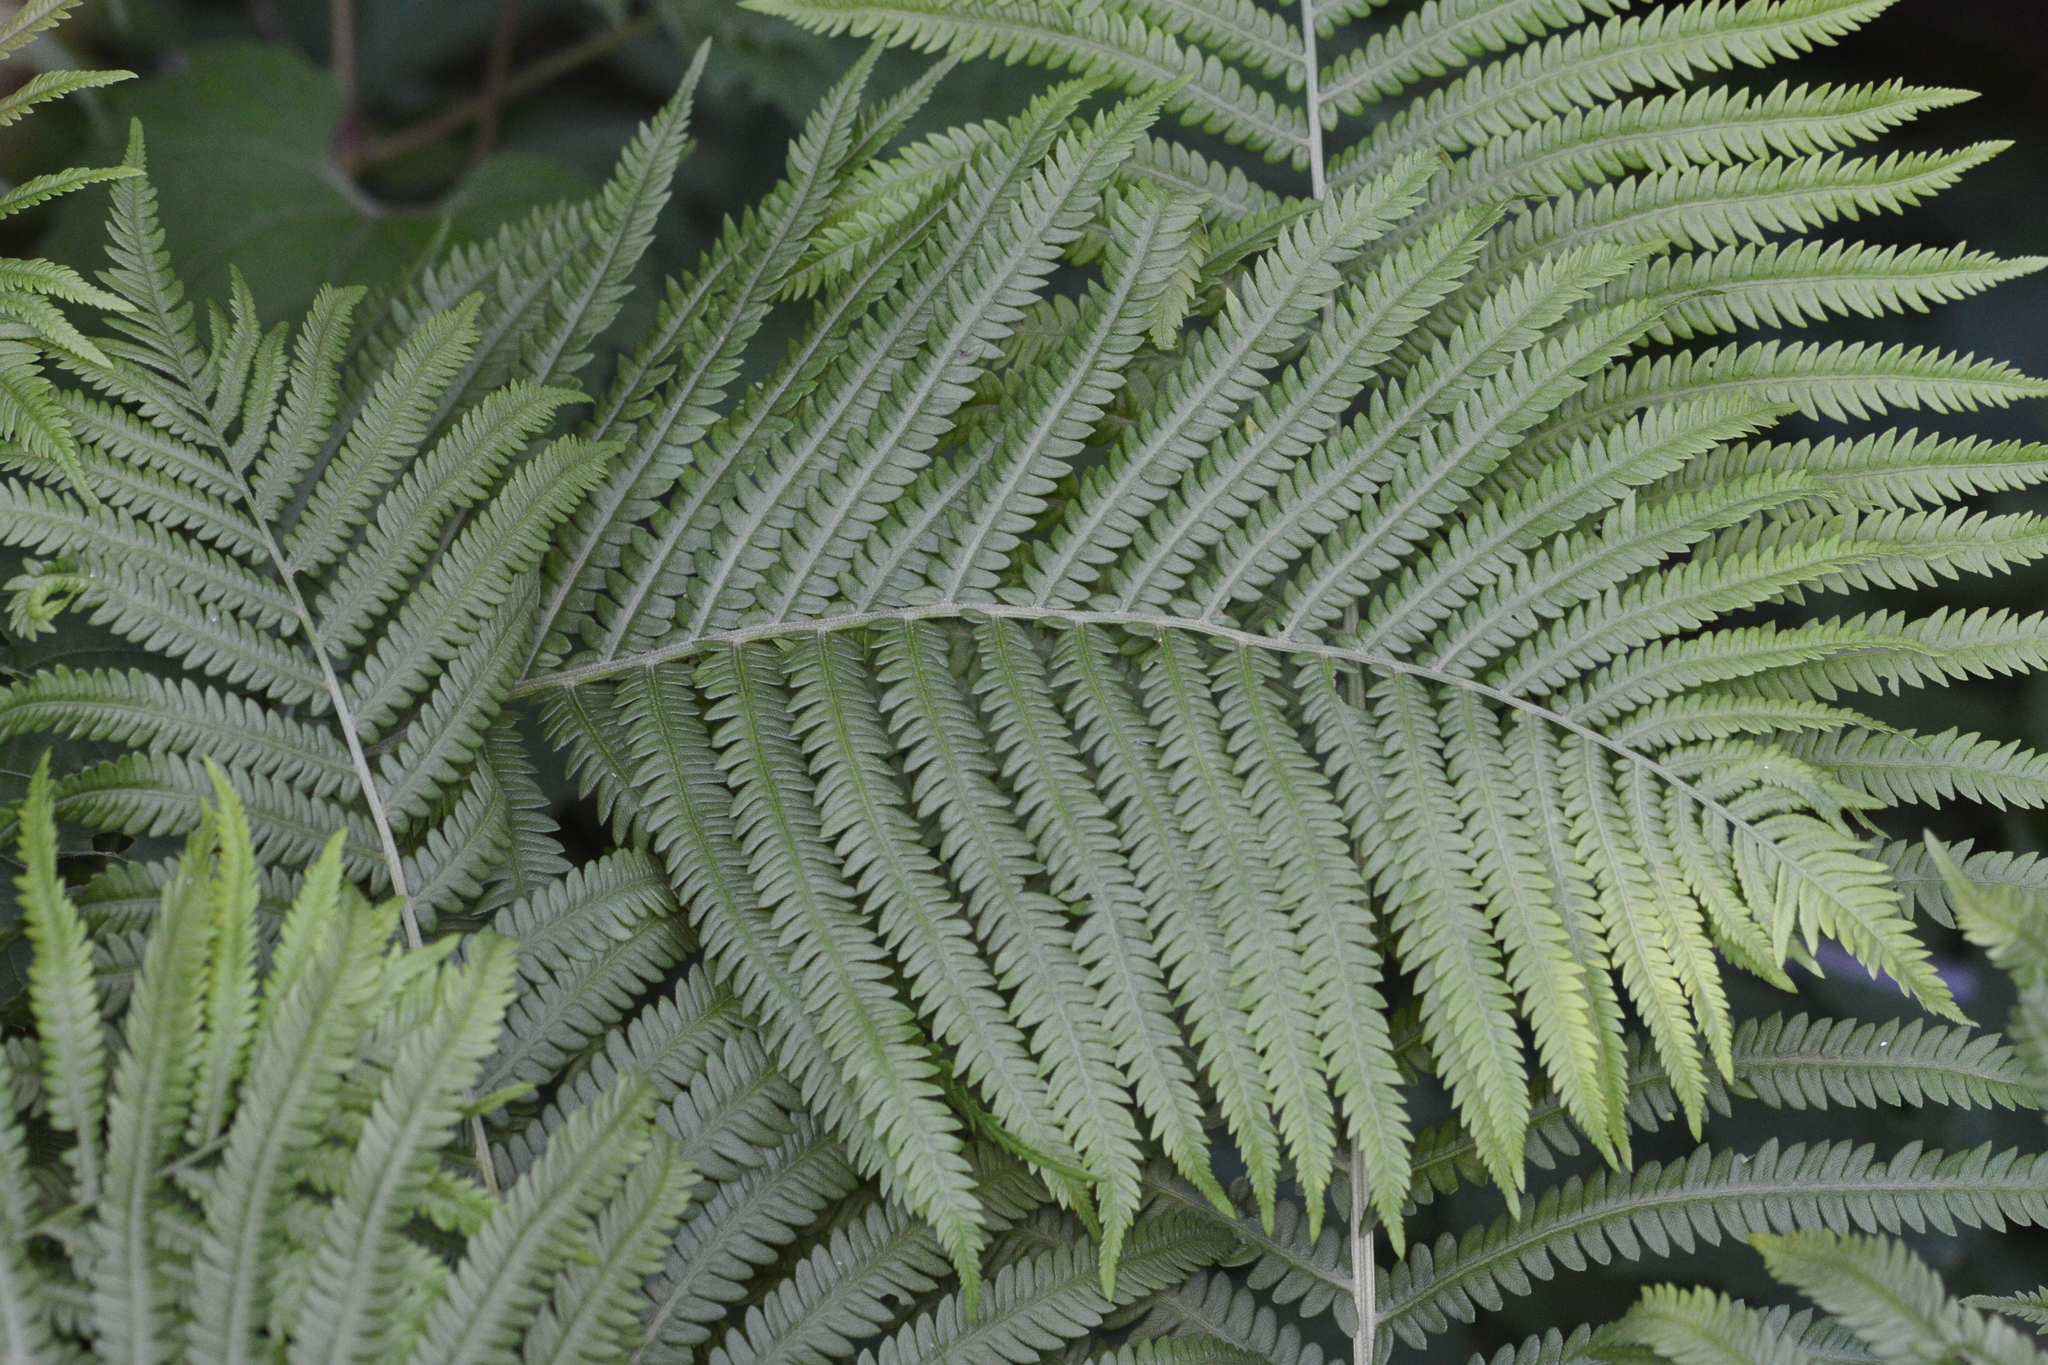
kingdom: Plantae
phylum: Tracheophyta
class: Polypodiopsida
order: Polypodiales
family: Onocleaceae
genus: Matteuccia
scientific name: Matteuccia struthiopteris
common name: Ostrich fern
